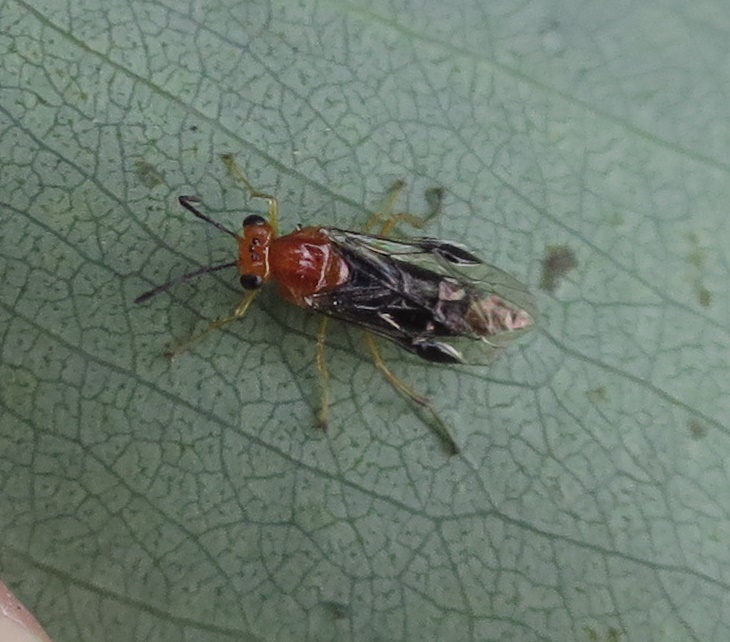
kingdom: Animalia
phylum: Arthropoda
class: Insecta
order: Hymenoptera
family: Pergidae
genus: Phylacteophaga
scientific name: Phylacteophaga froggatti
